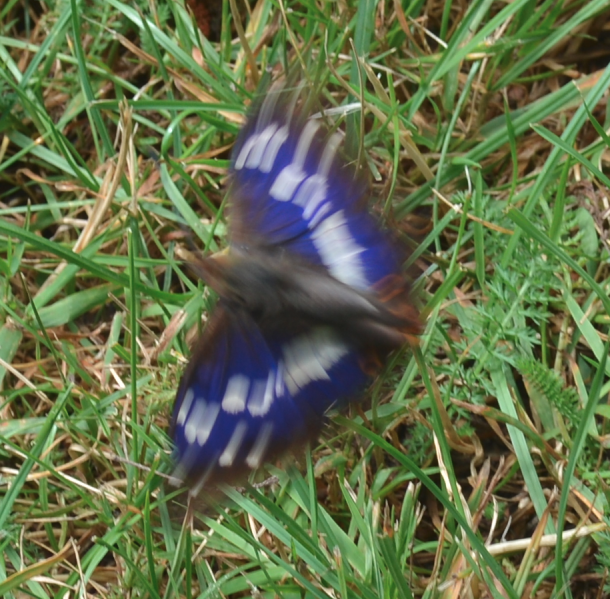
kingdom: Animalia
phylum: Arthropoda
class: Insecta
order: Lepidoptera
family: Nymphalidae
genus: Apatura
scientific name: Apatura iris
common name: Purple emperor
